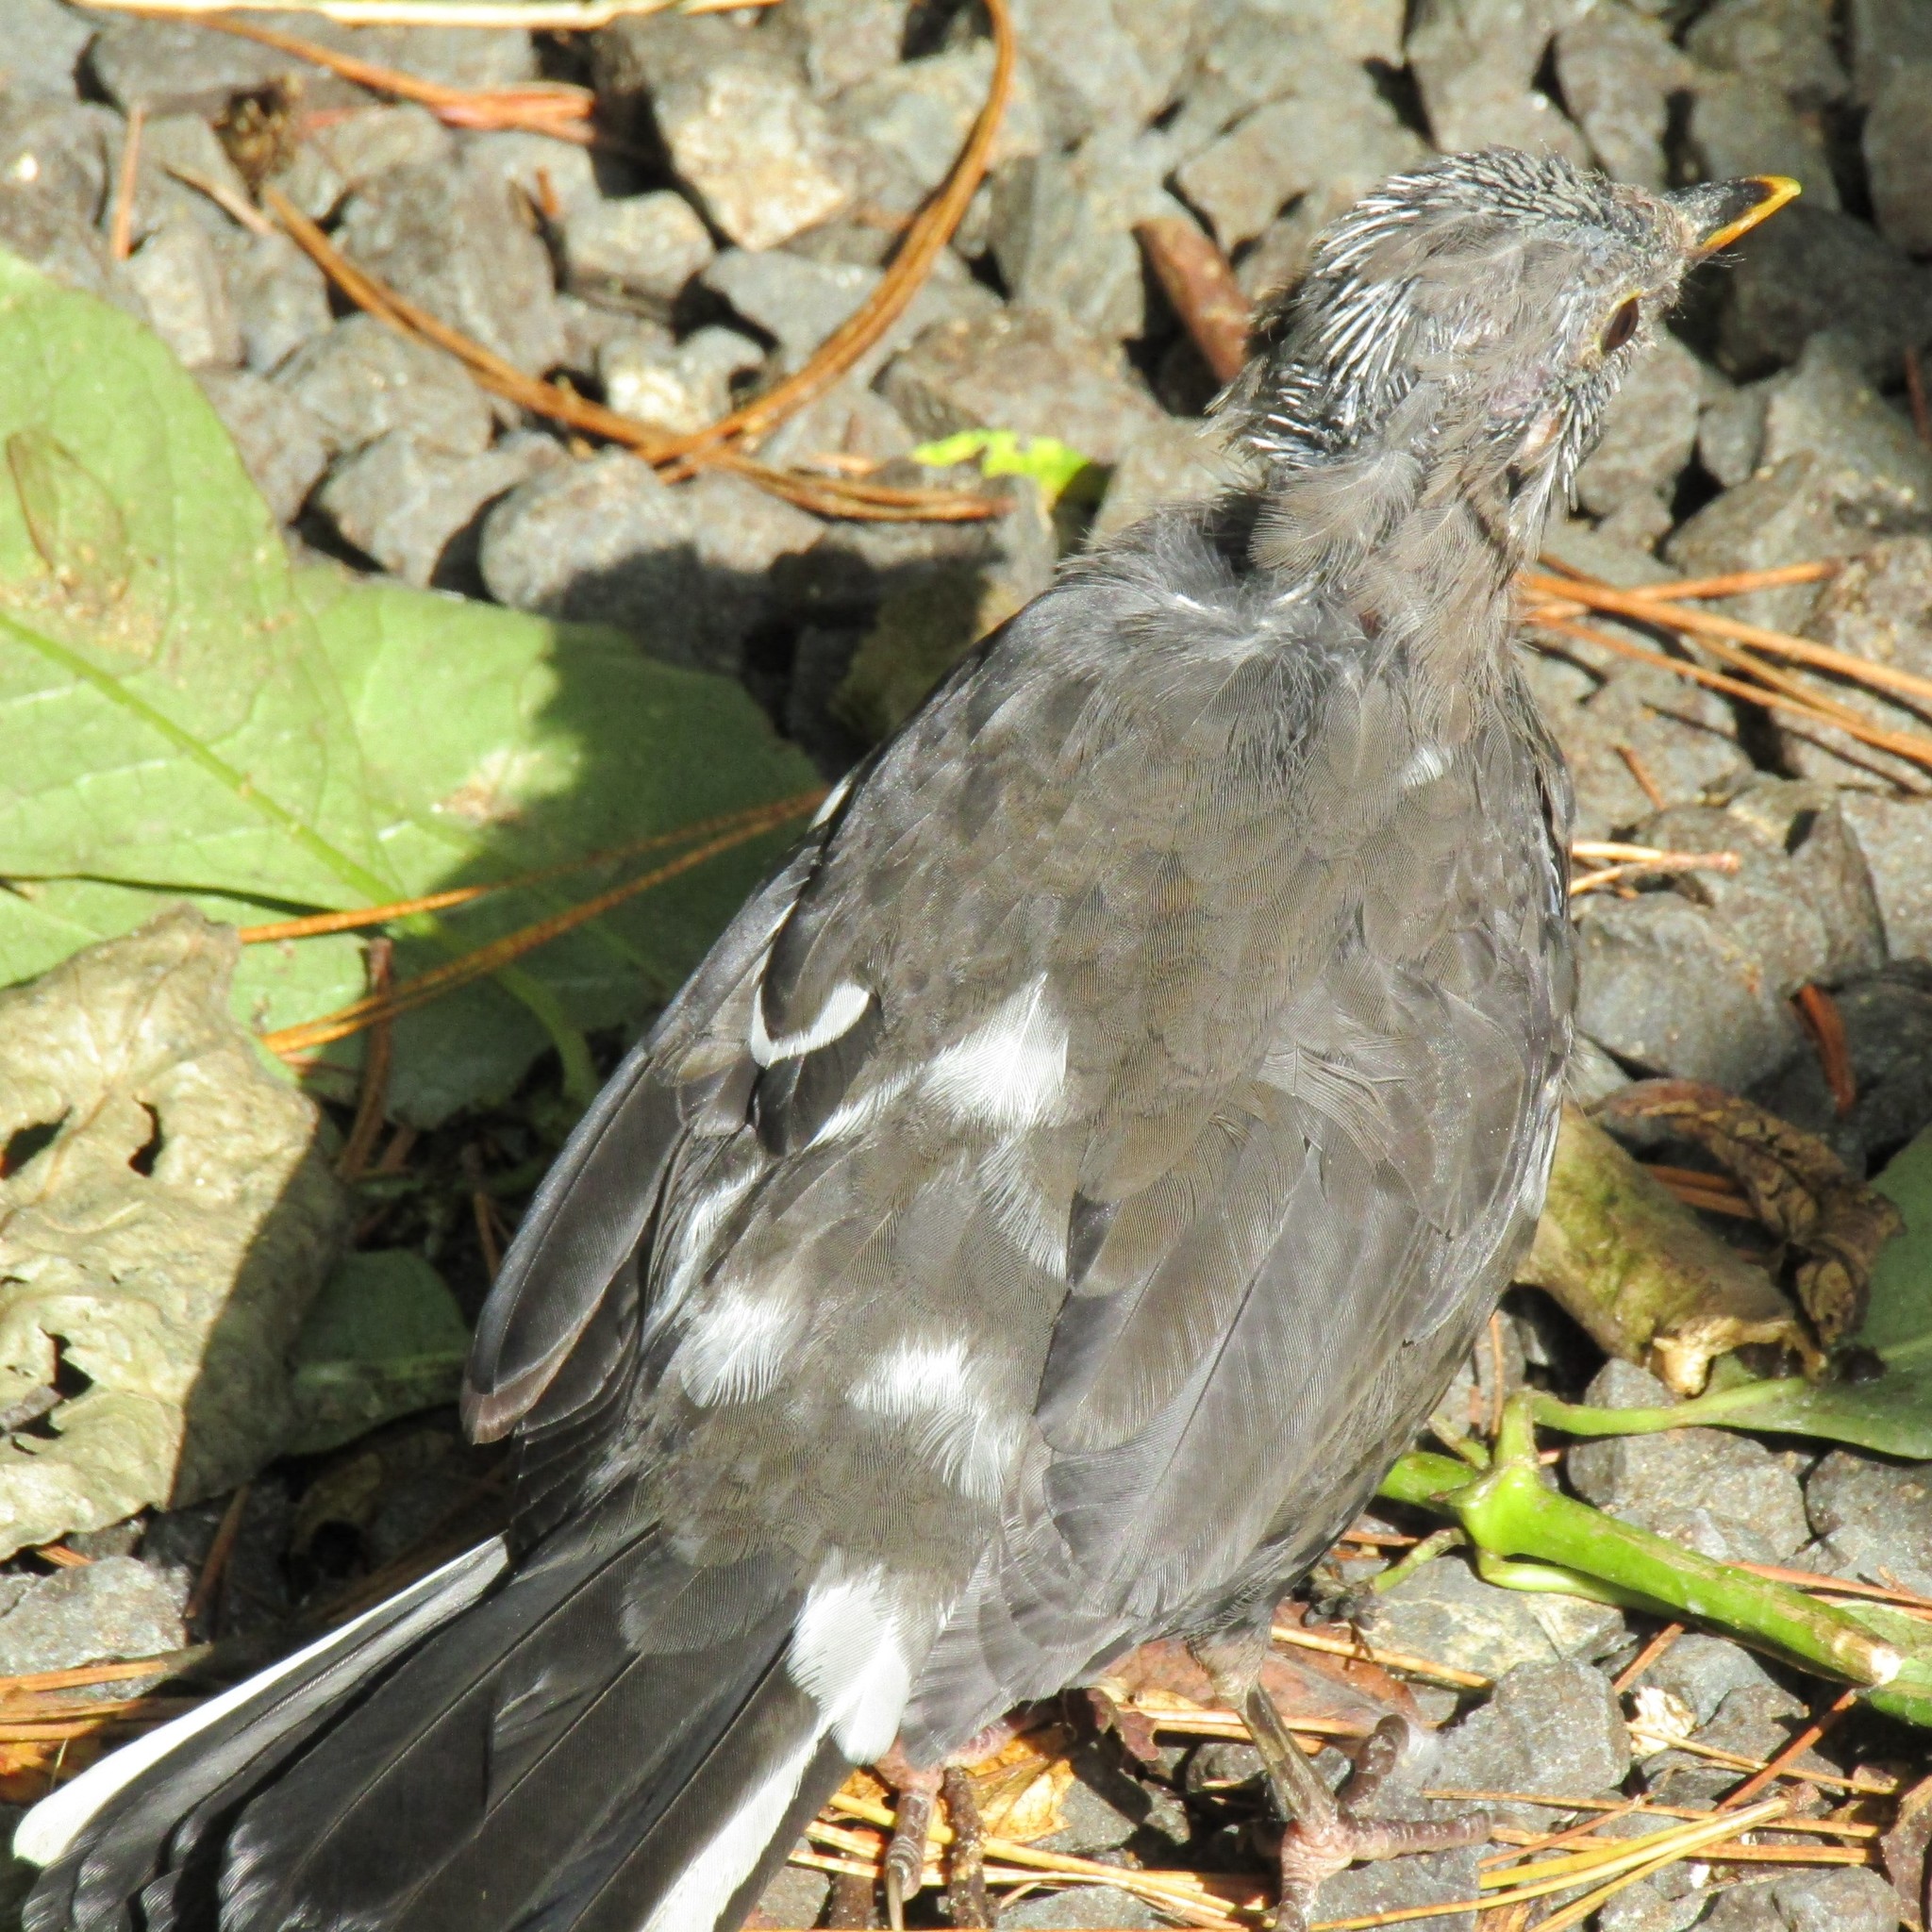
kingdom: Animalia
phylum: Chordata
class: Aves
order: Passeriformes
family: Turdidae
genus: Turdus
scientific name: Turdus merula
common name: Common blackbird
